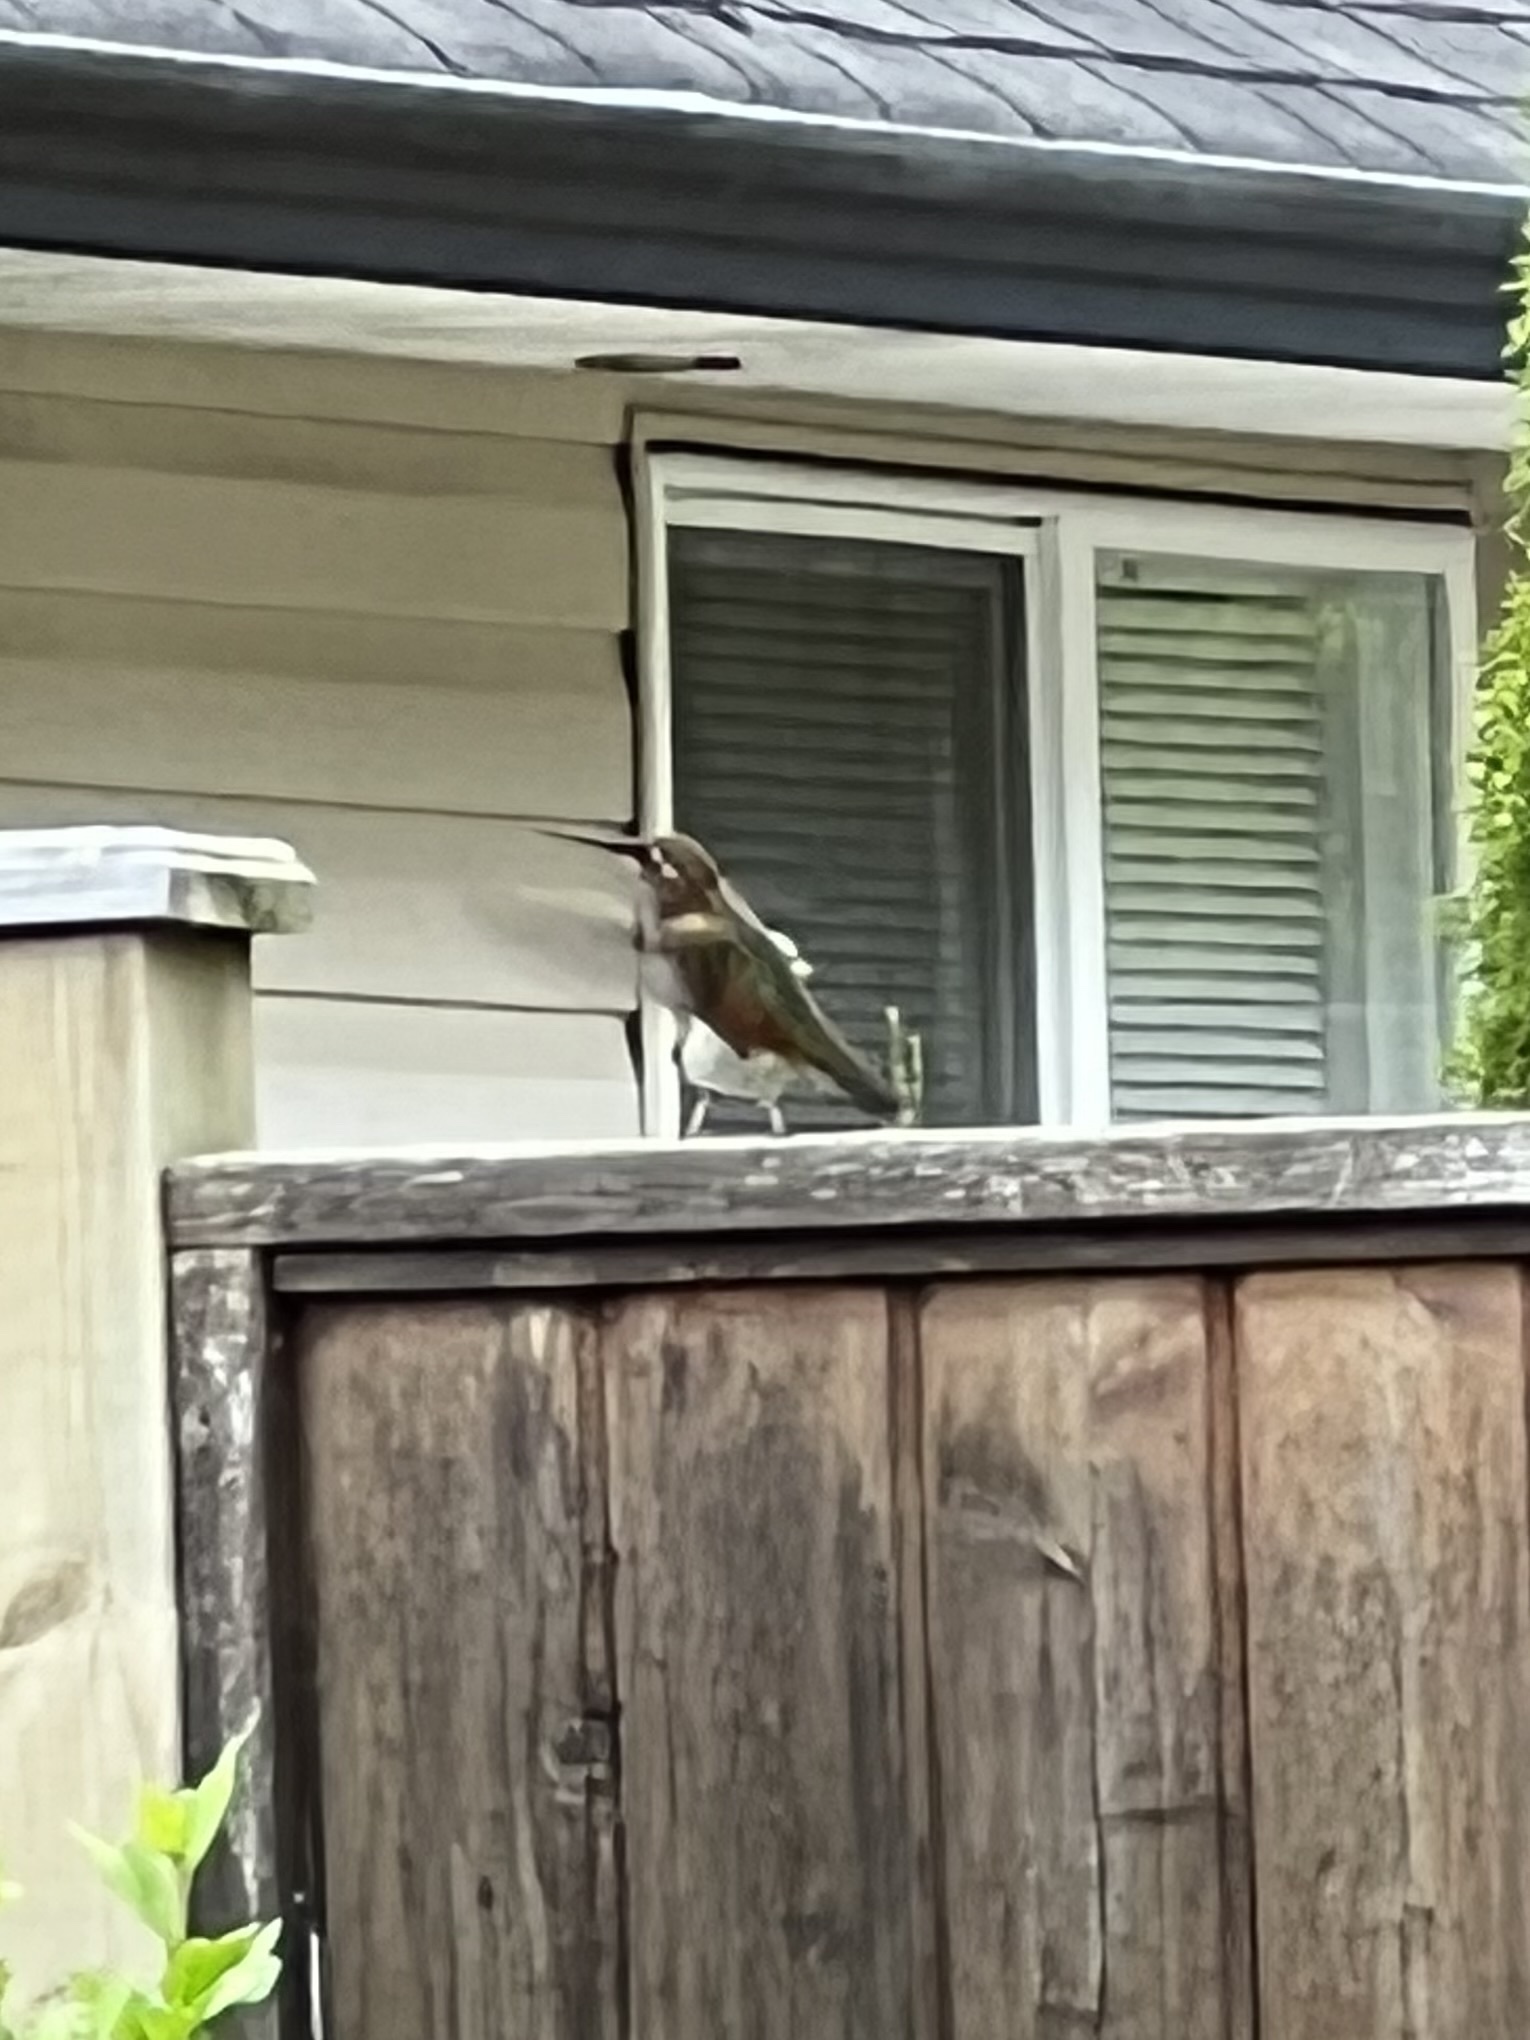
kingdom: Animalia
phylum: Chordata
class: Aves
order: Apodiformes
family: Trochilidae
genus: Selasphorus
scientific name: Selasphorus rufus
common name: Rufous hummingbird
